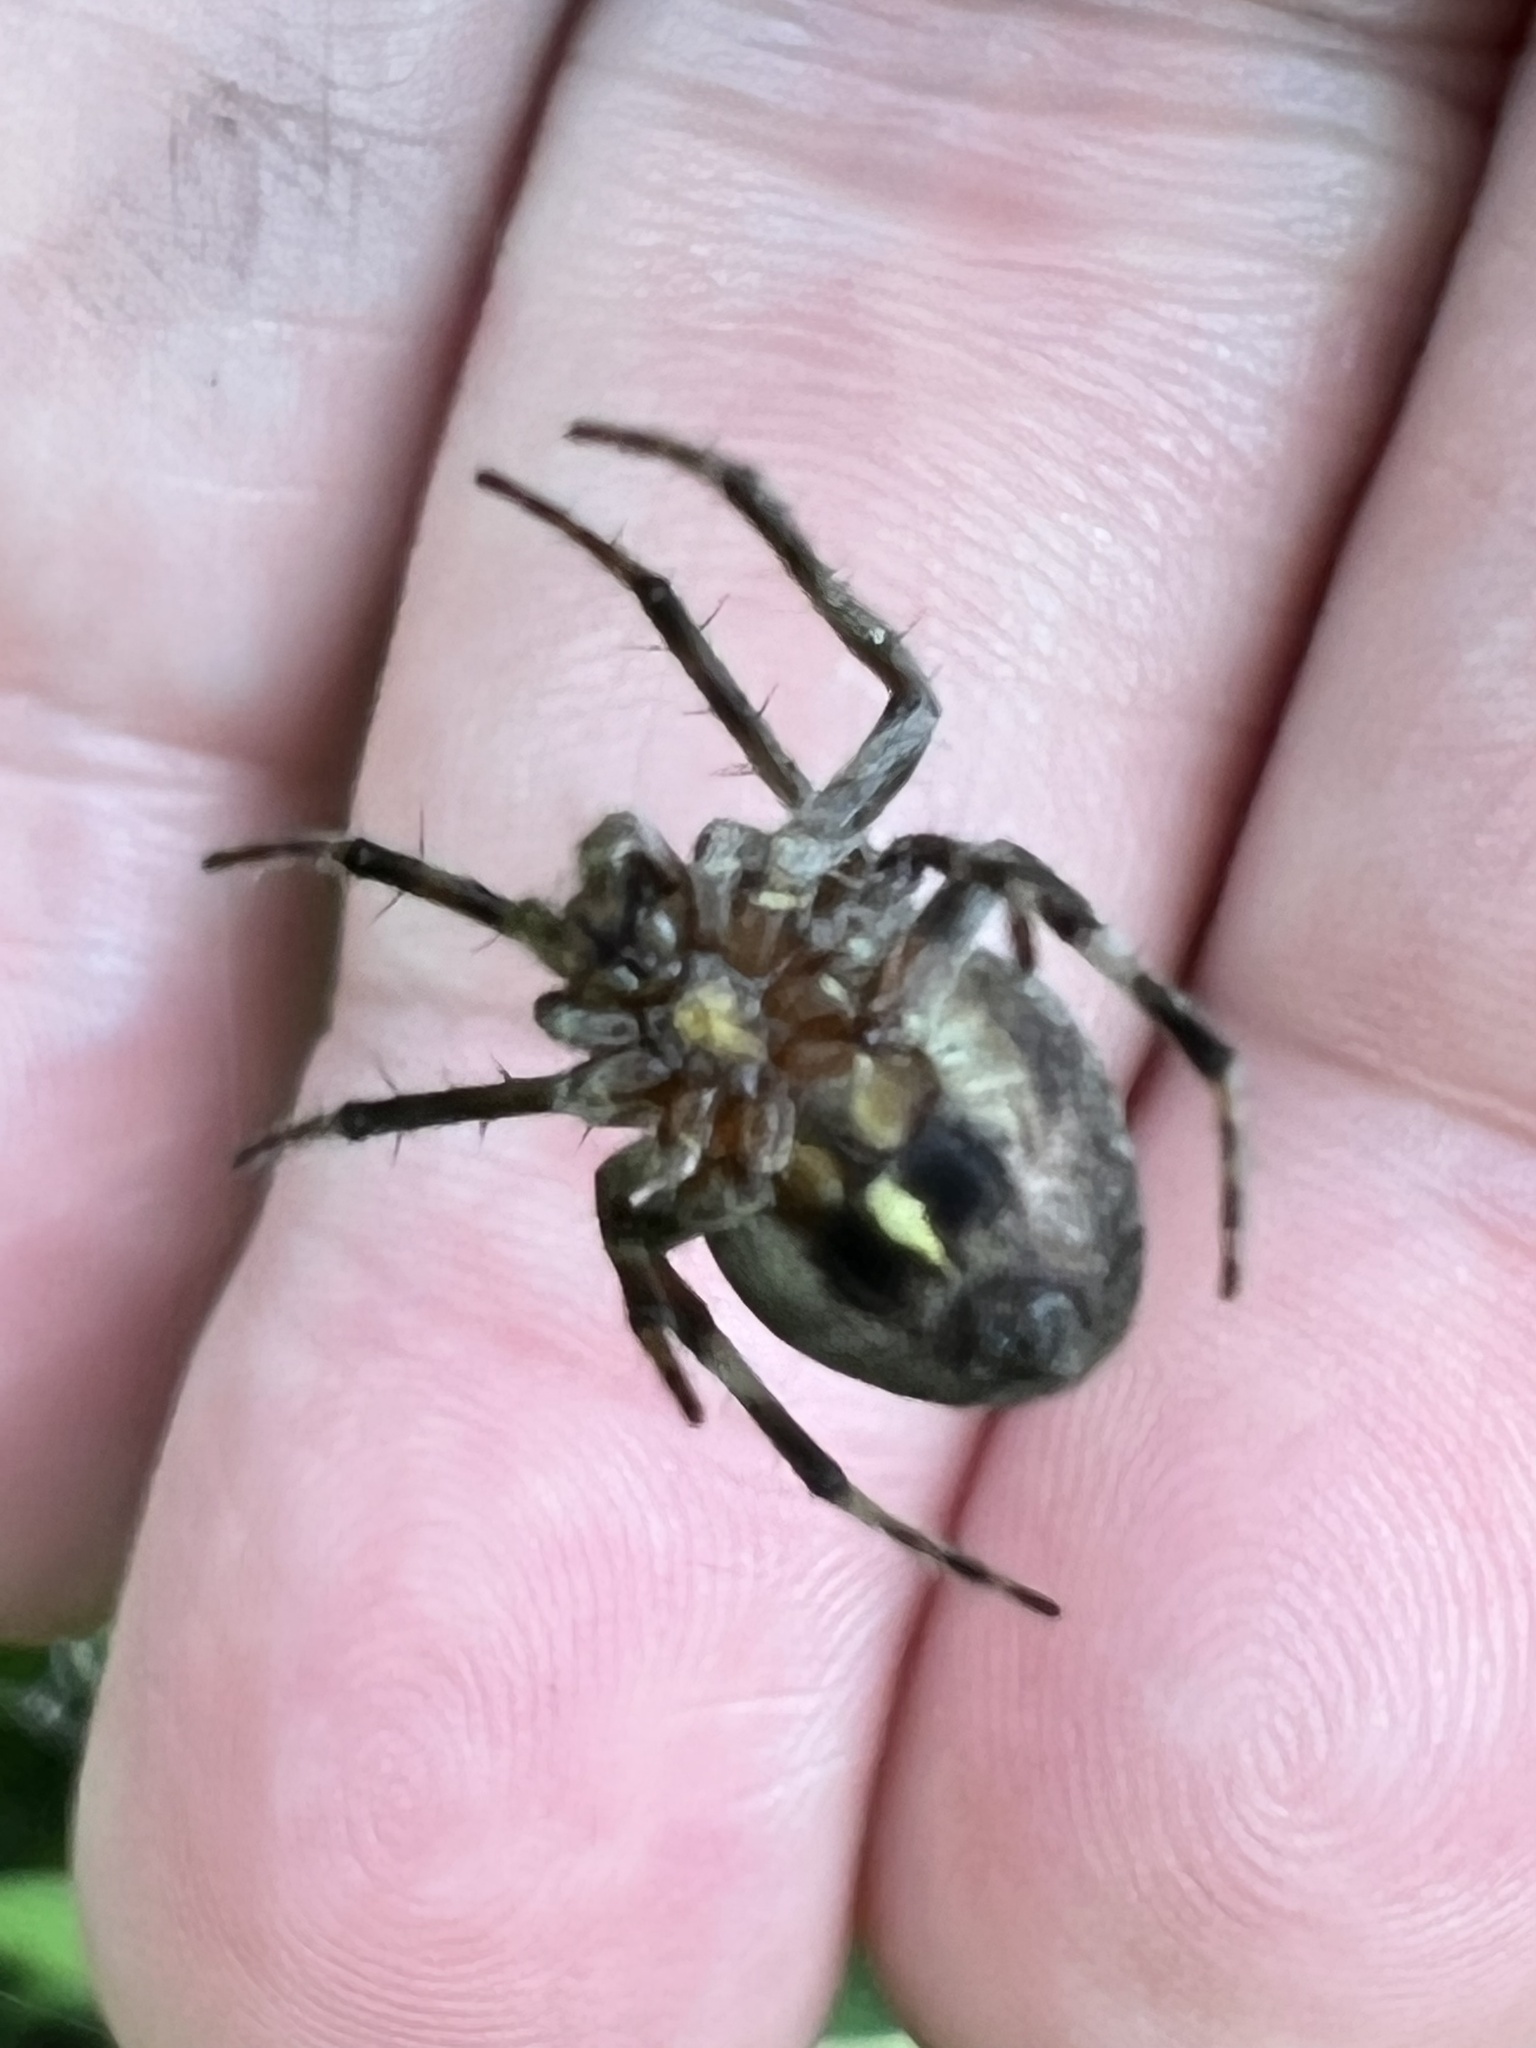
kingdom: Animalia
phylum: Arthropoda
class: Arachnida
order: Araneae
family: Araneidae
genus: Eustala
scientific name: Eustala anastera
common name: Orb weavers
